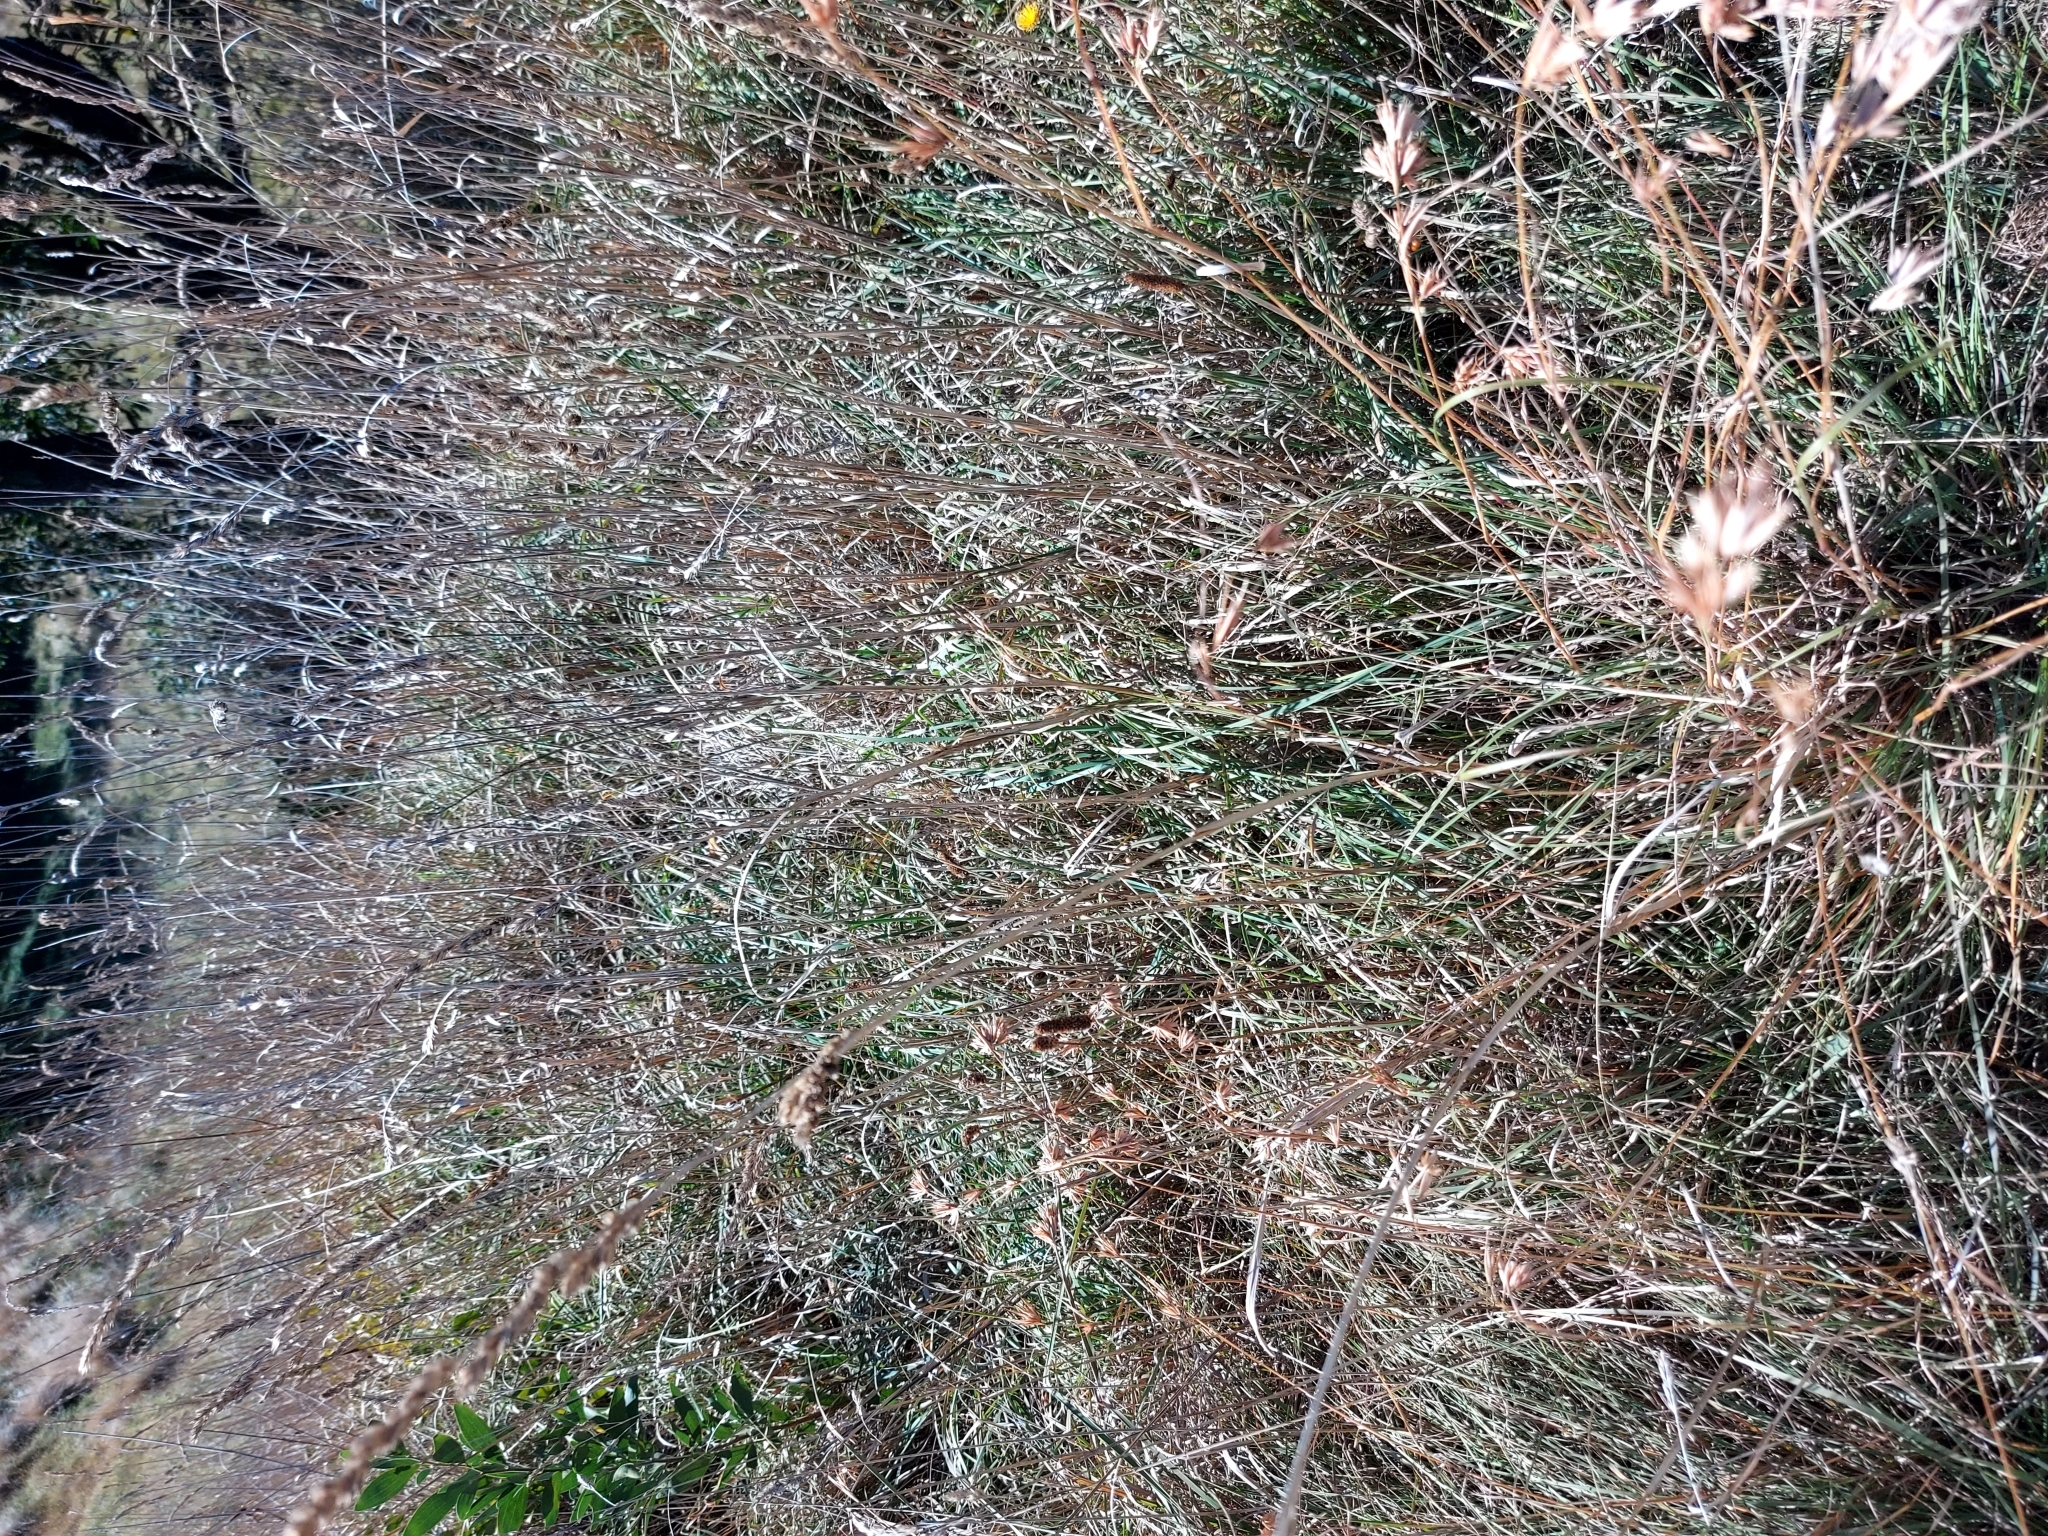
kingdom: Plantae
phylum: Tracheophyta
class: Liliopsida
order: Poales
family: Poaceae
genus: Themeda
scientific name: Themeda triandra
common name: Kangaroo grass
